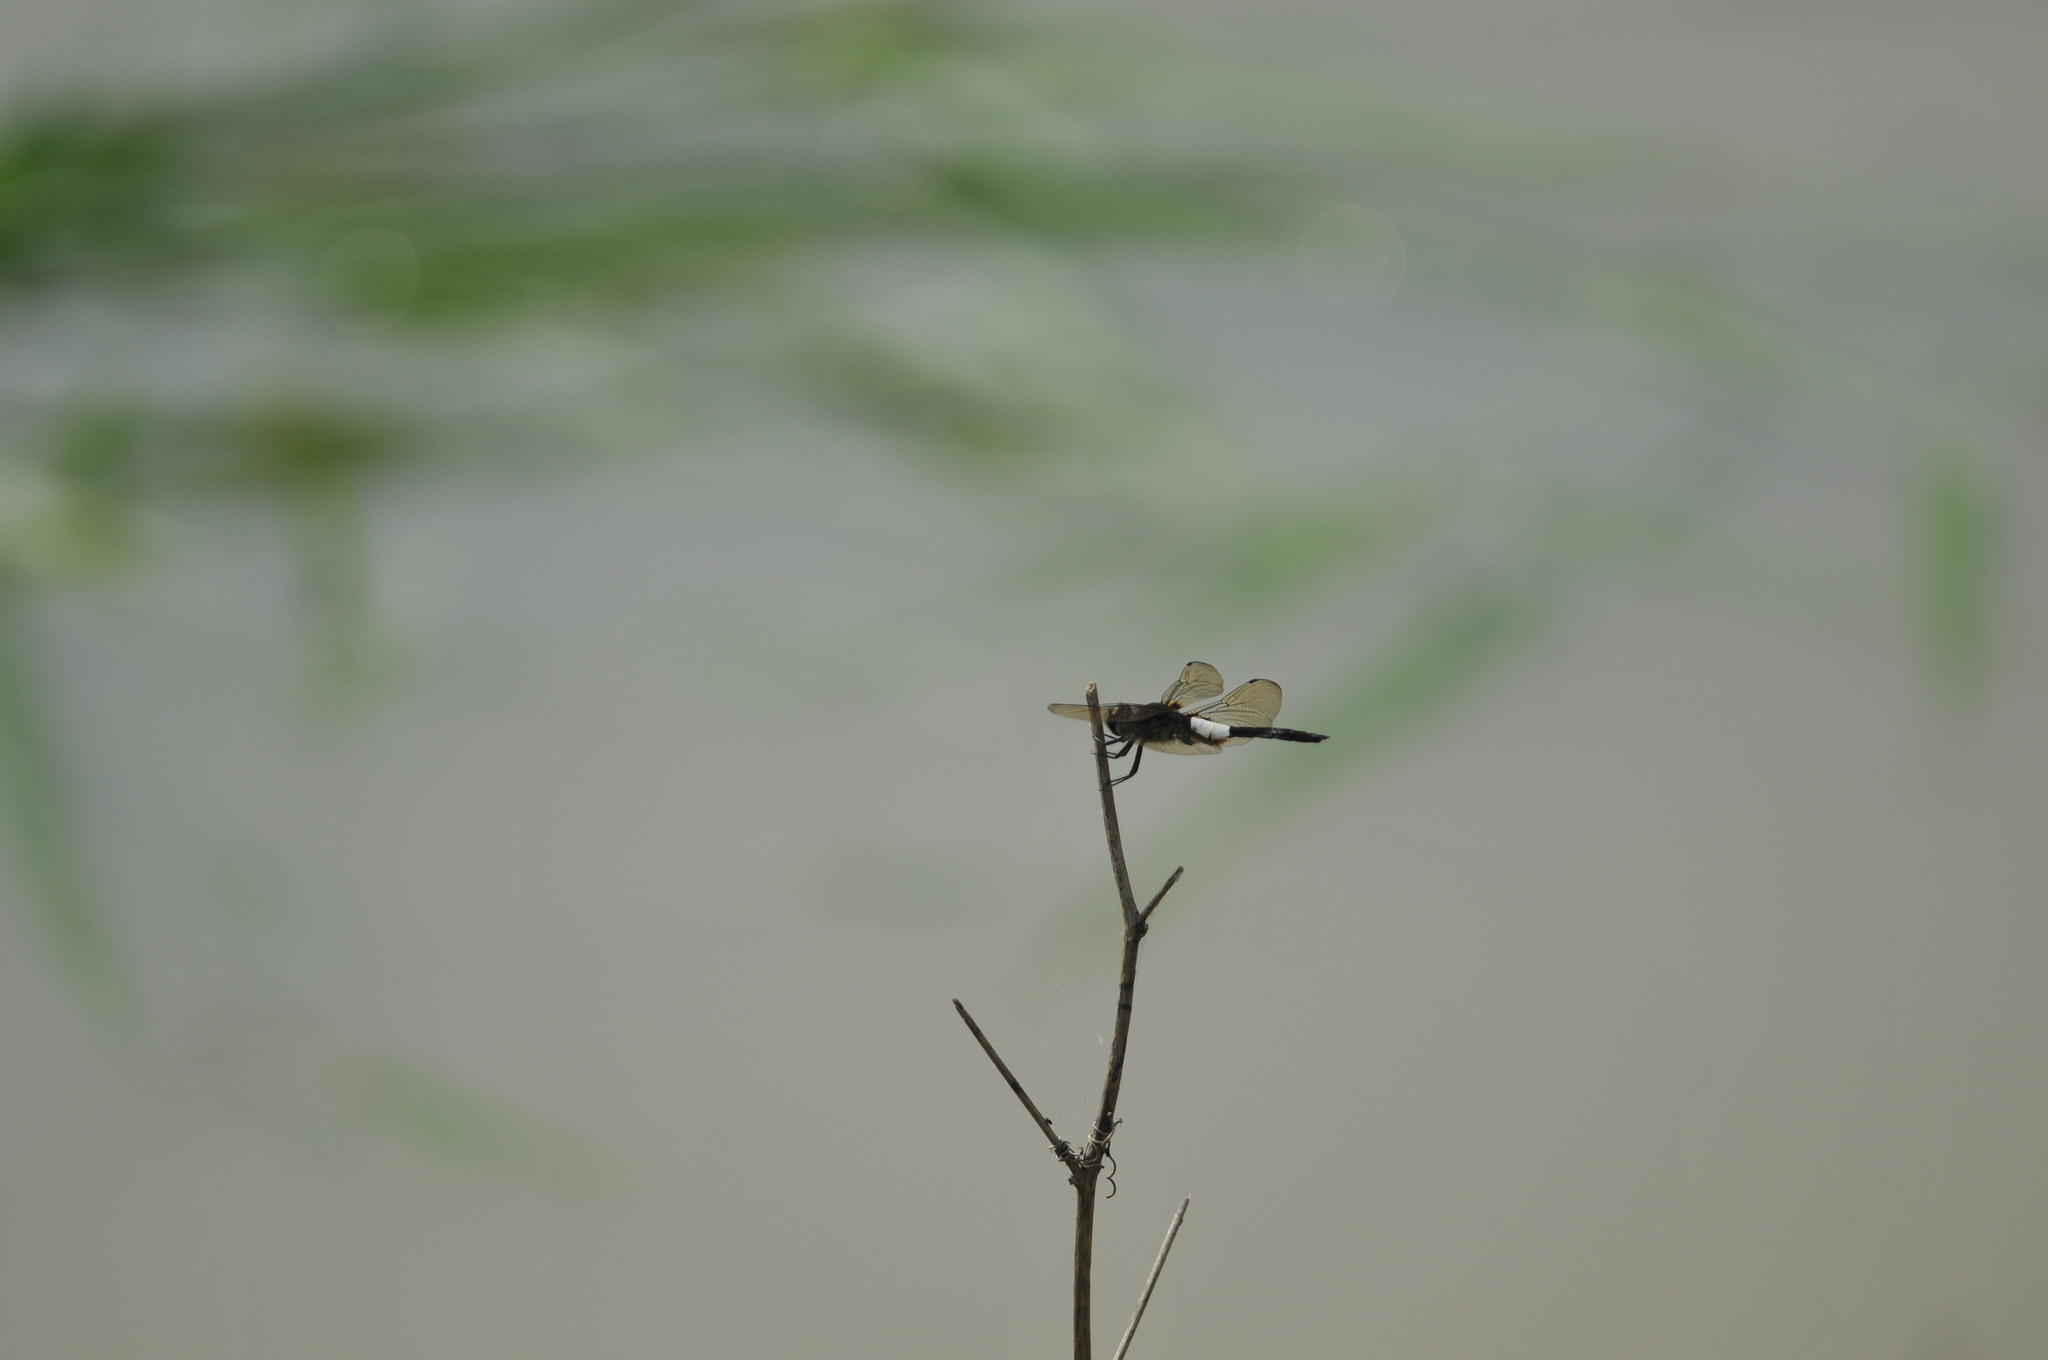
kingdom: Animalia
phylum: Arthropoda
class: Insecta
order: Odonata
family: Libellulidae
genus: Pseudothemis
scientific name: Pseudothemis zonata
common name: Pied skimmer
